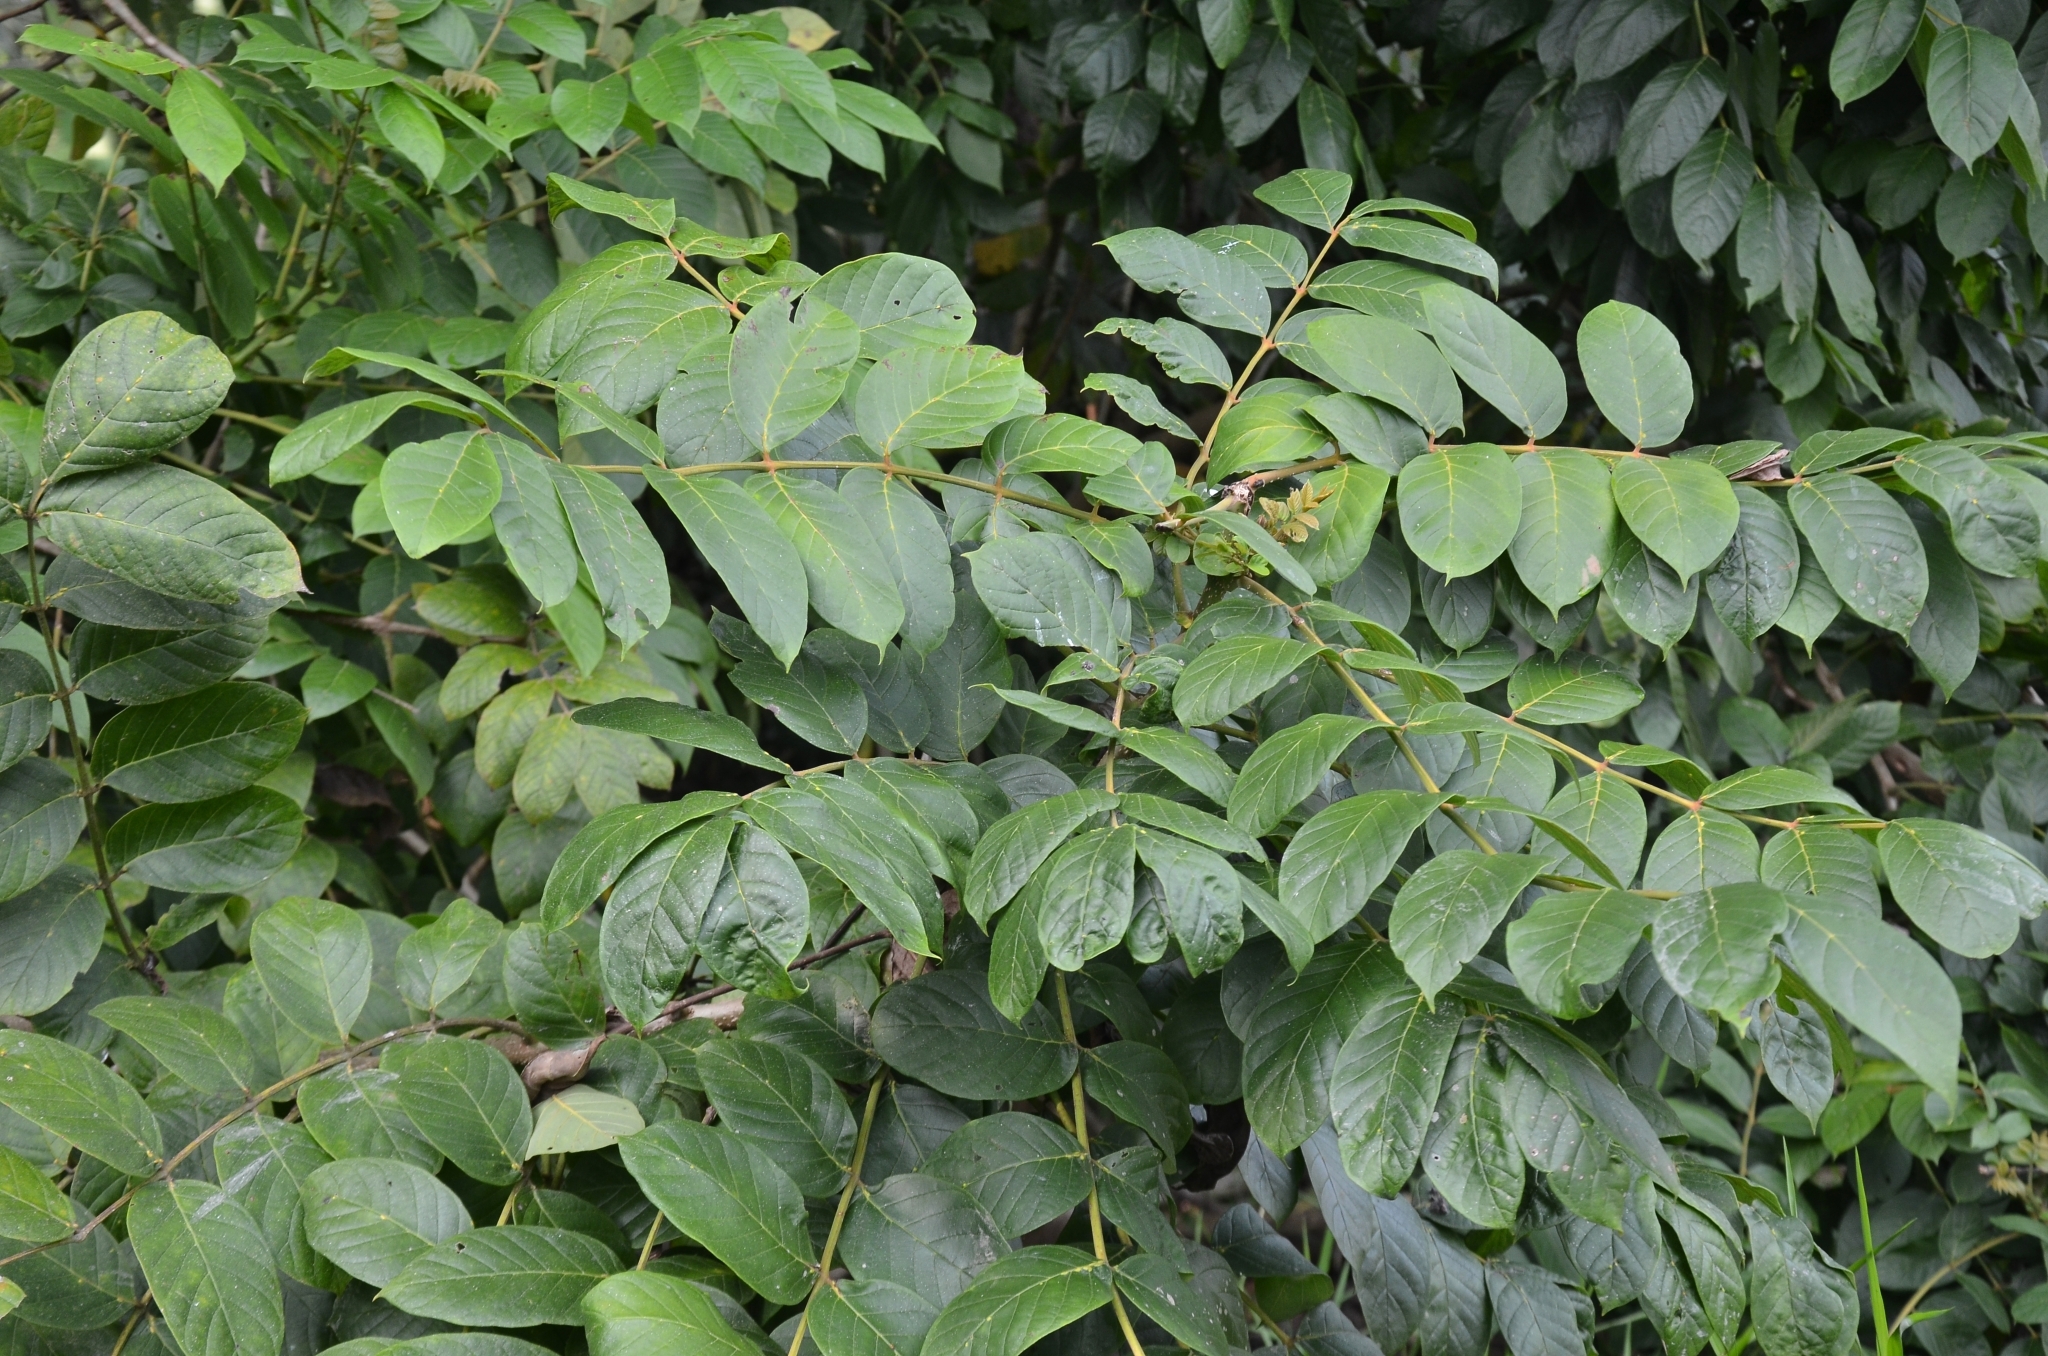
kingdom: Plantae
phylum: Tracheophyta
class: Magnoliopsida
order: Lamiales
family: Bignoniaceae
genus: Spathodea
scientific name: Spathodea campanulata
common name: African tuliptree
